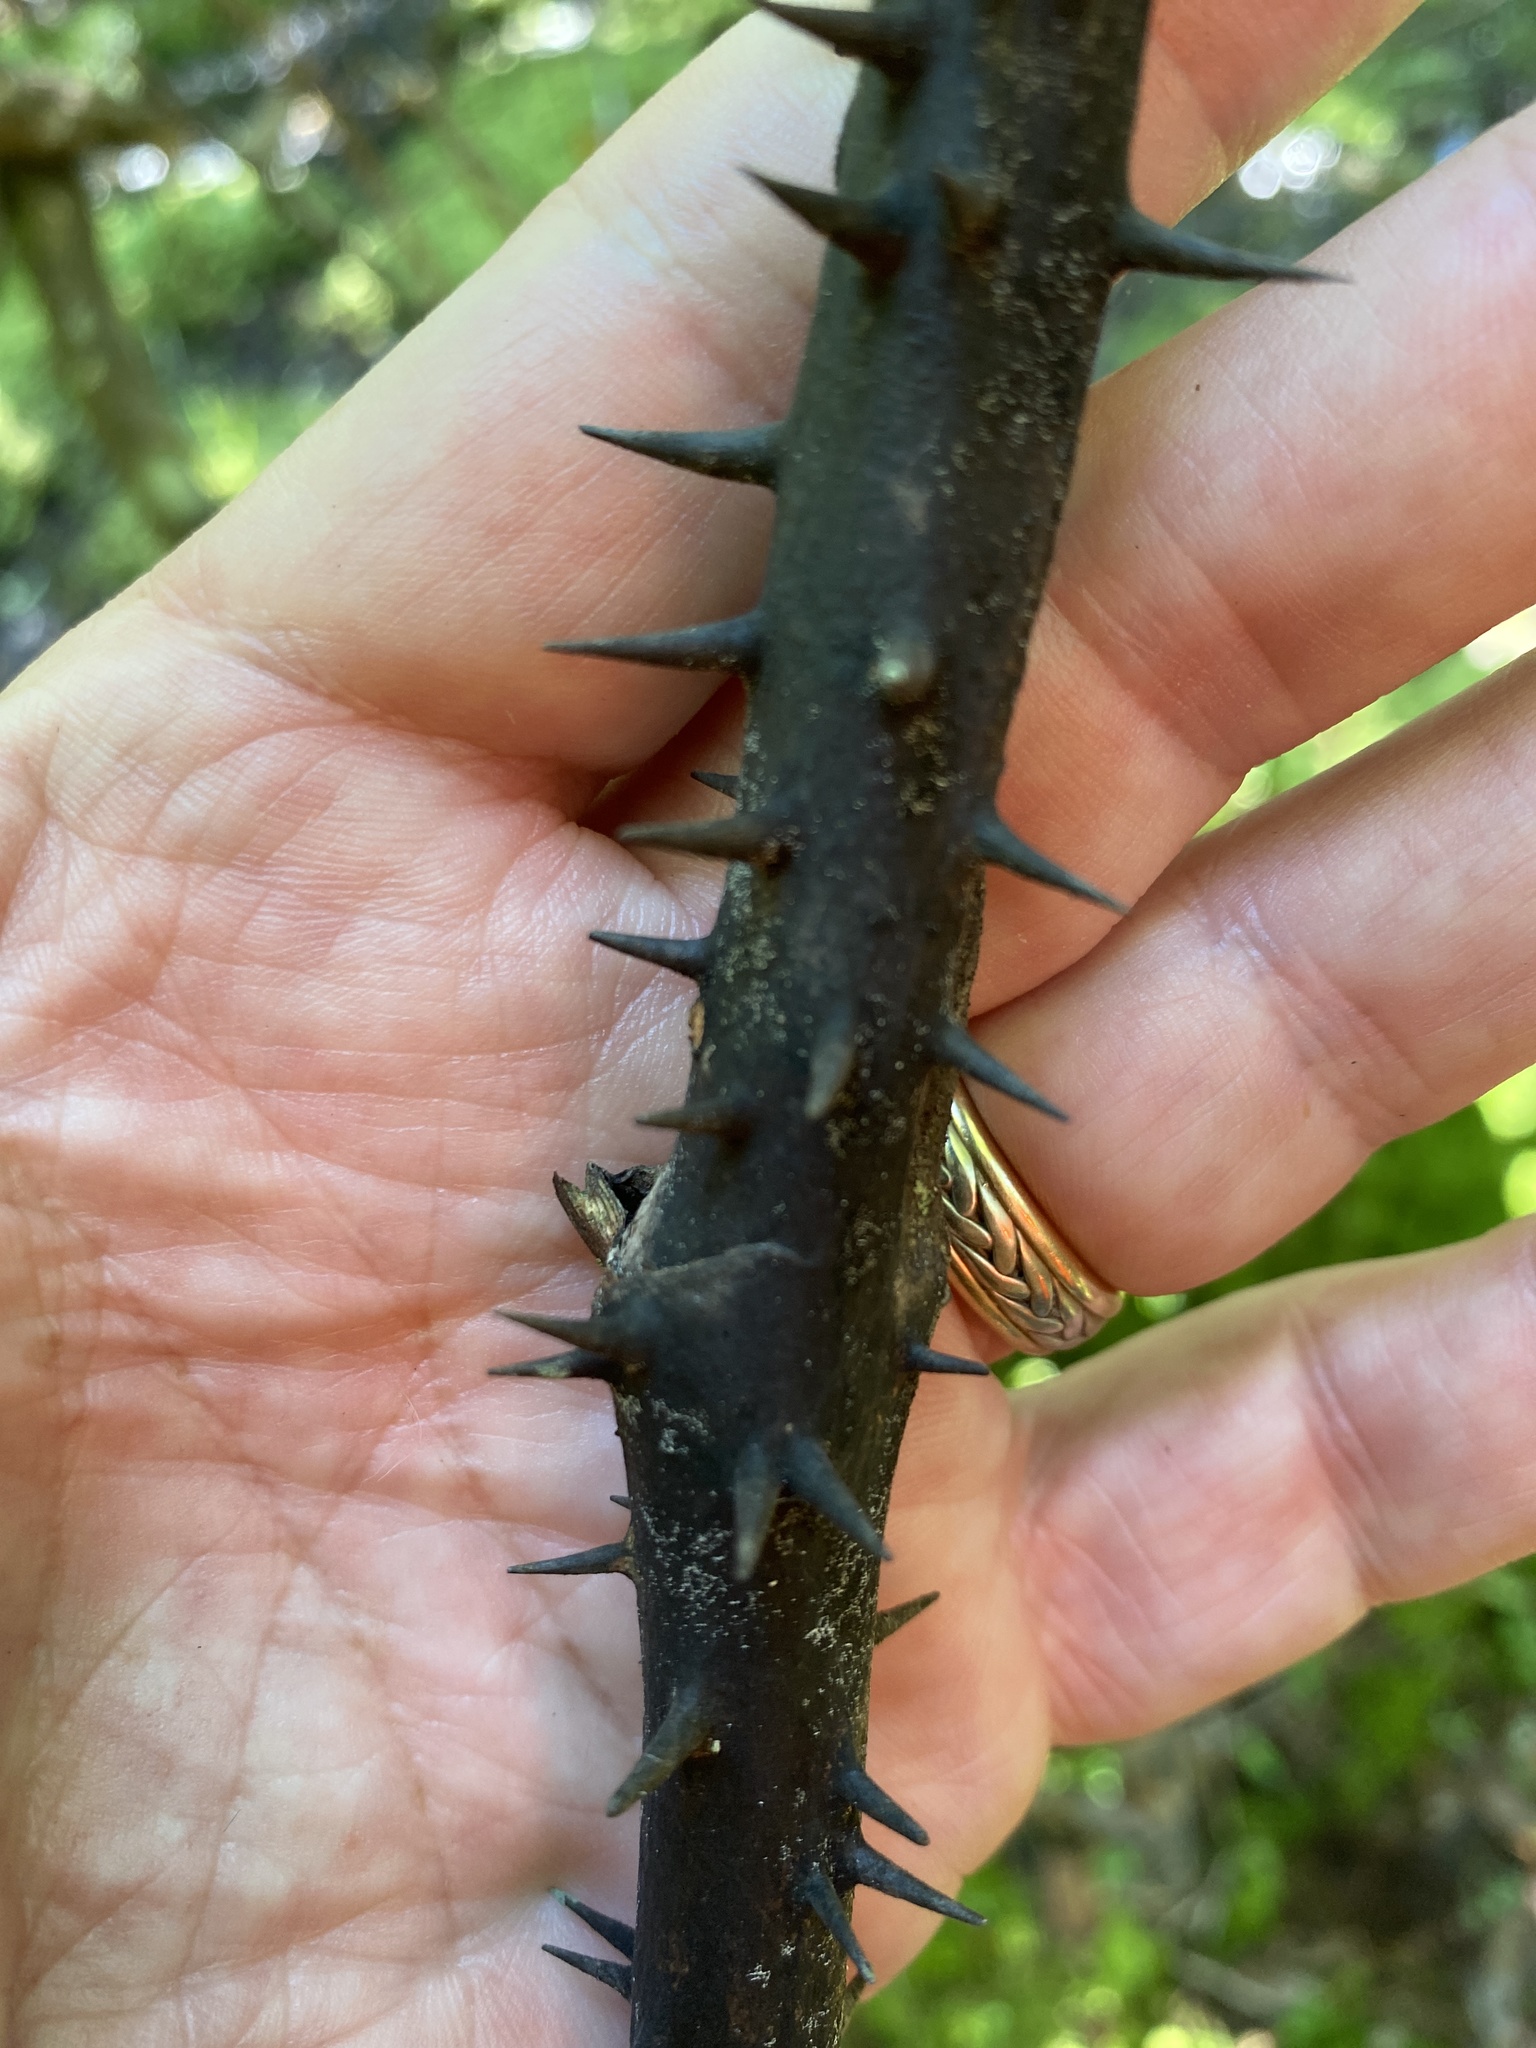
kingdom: Plantae
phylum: Tracheophyta
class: Liliopsida
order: Liliales
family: Smilacaceae
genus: Smilax
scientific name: Smilax laurifolia
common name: Bamboovine
